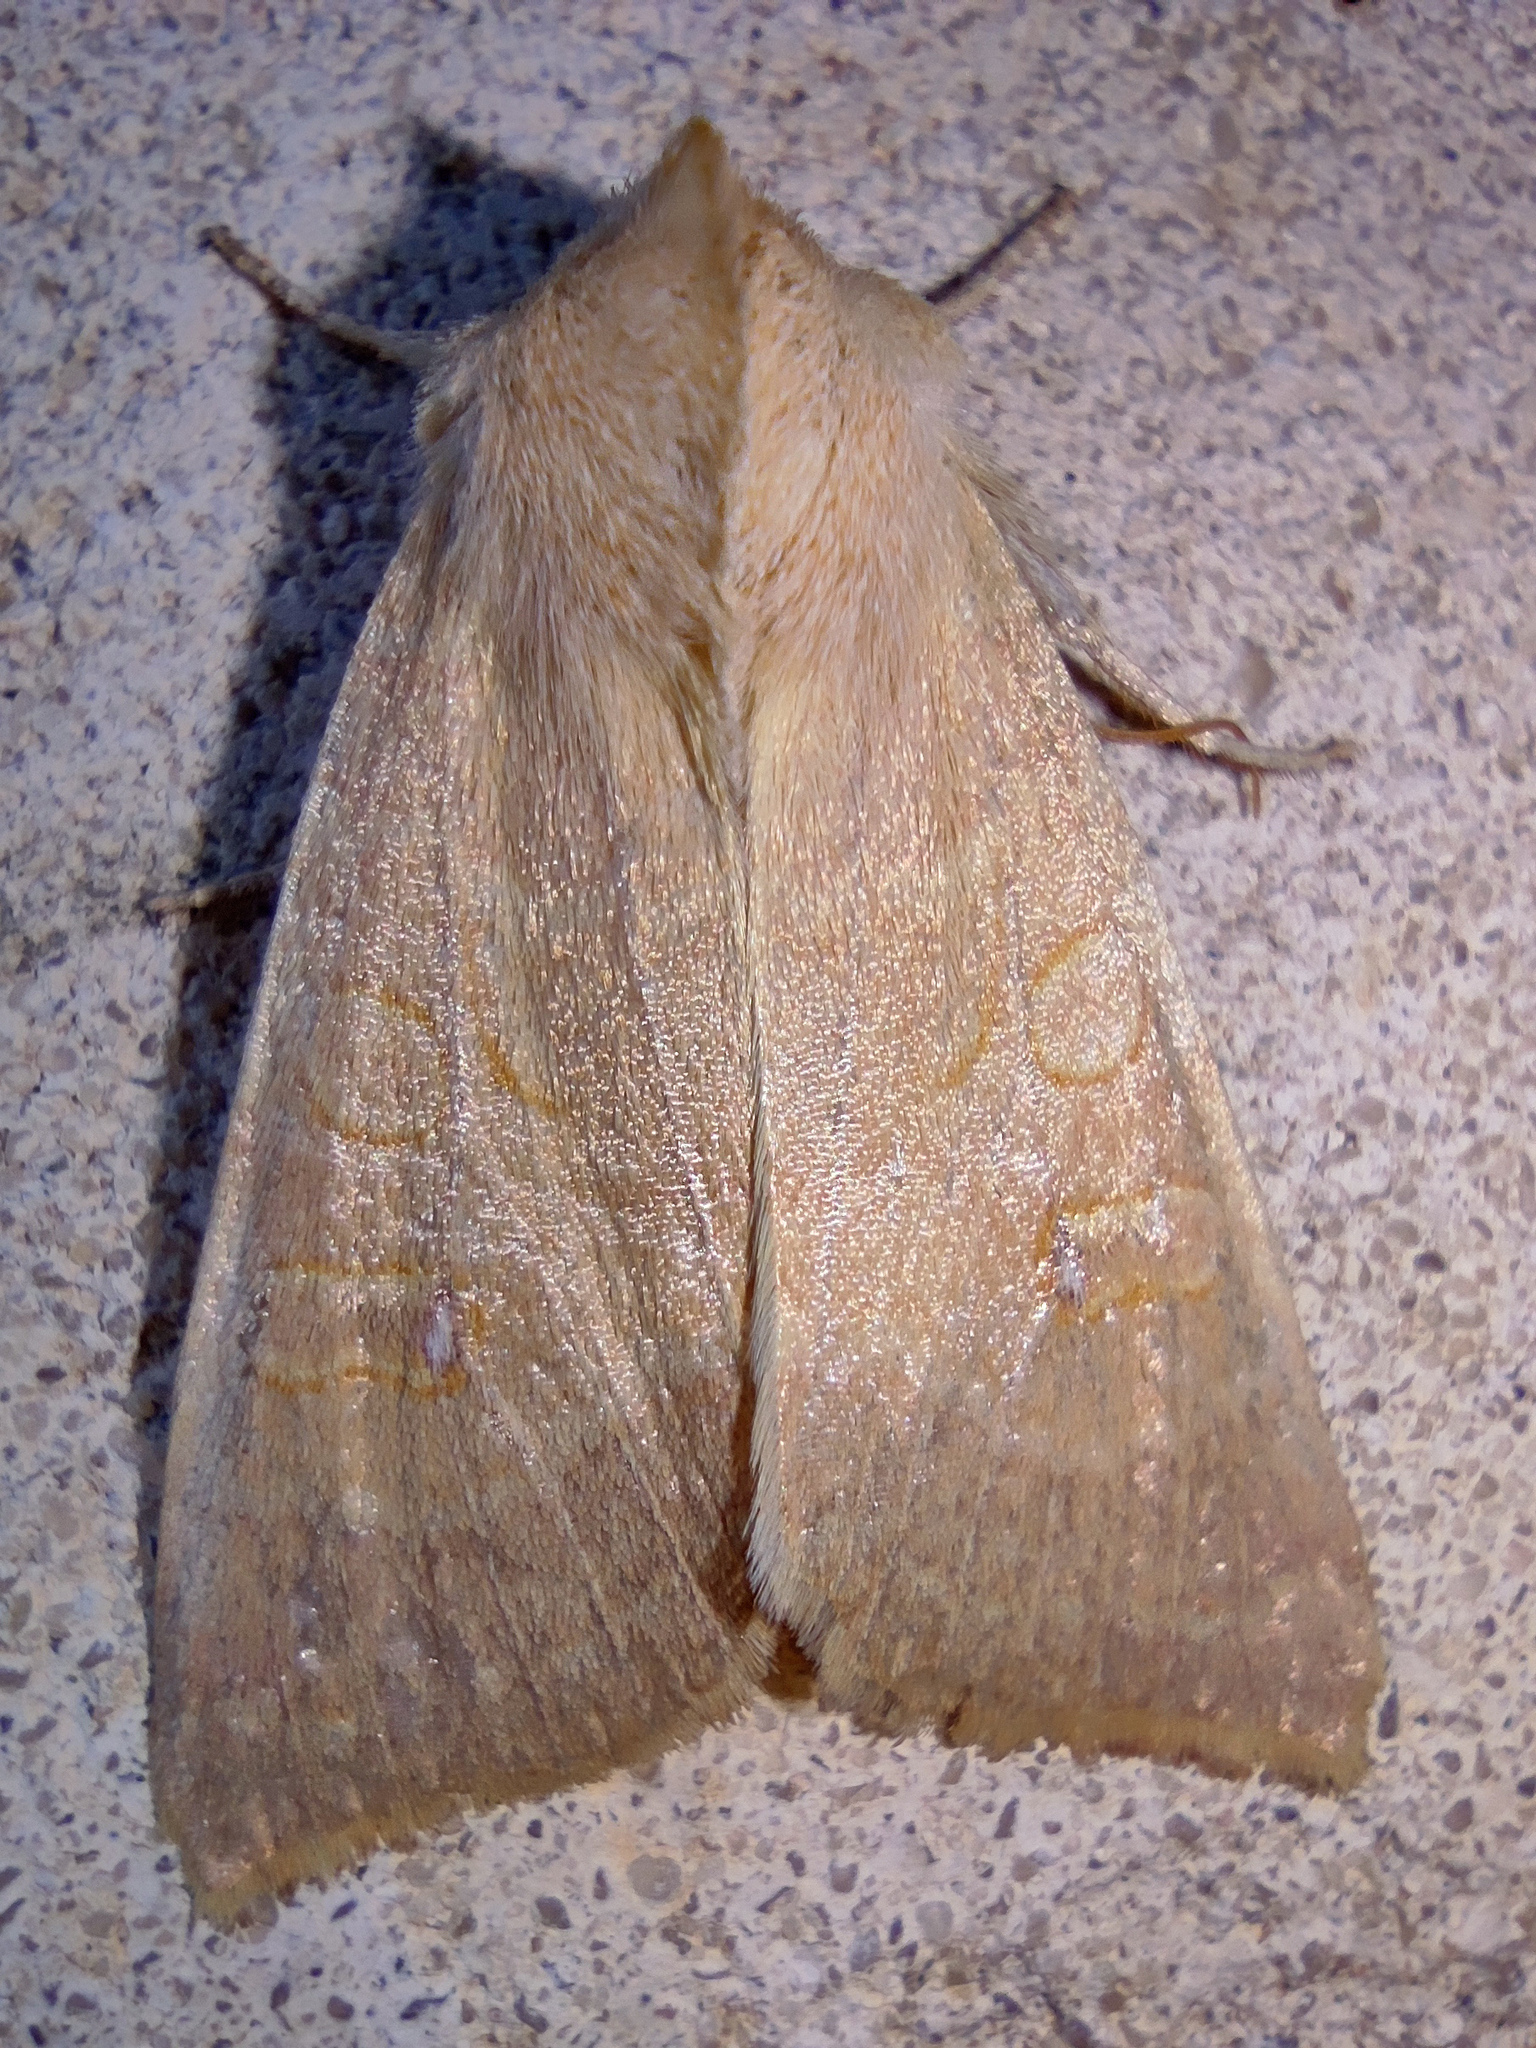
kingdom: Animalia
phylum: Arthropoda
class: Insecta
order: Lepidoptera
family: Noctuidae
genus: Xanthia
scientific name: Xanthia ocellaris
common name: Pale-lemon sallow
